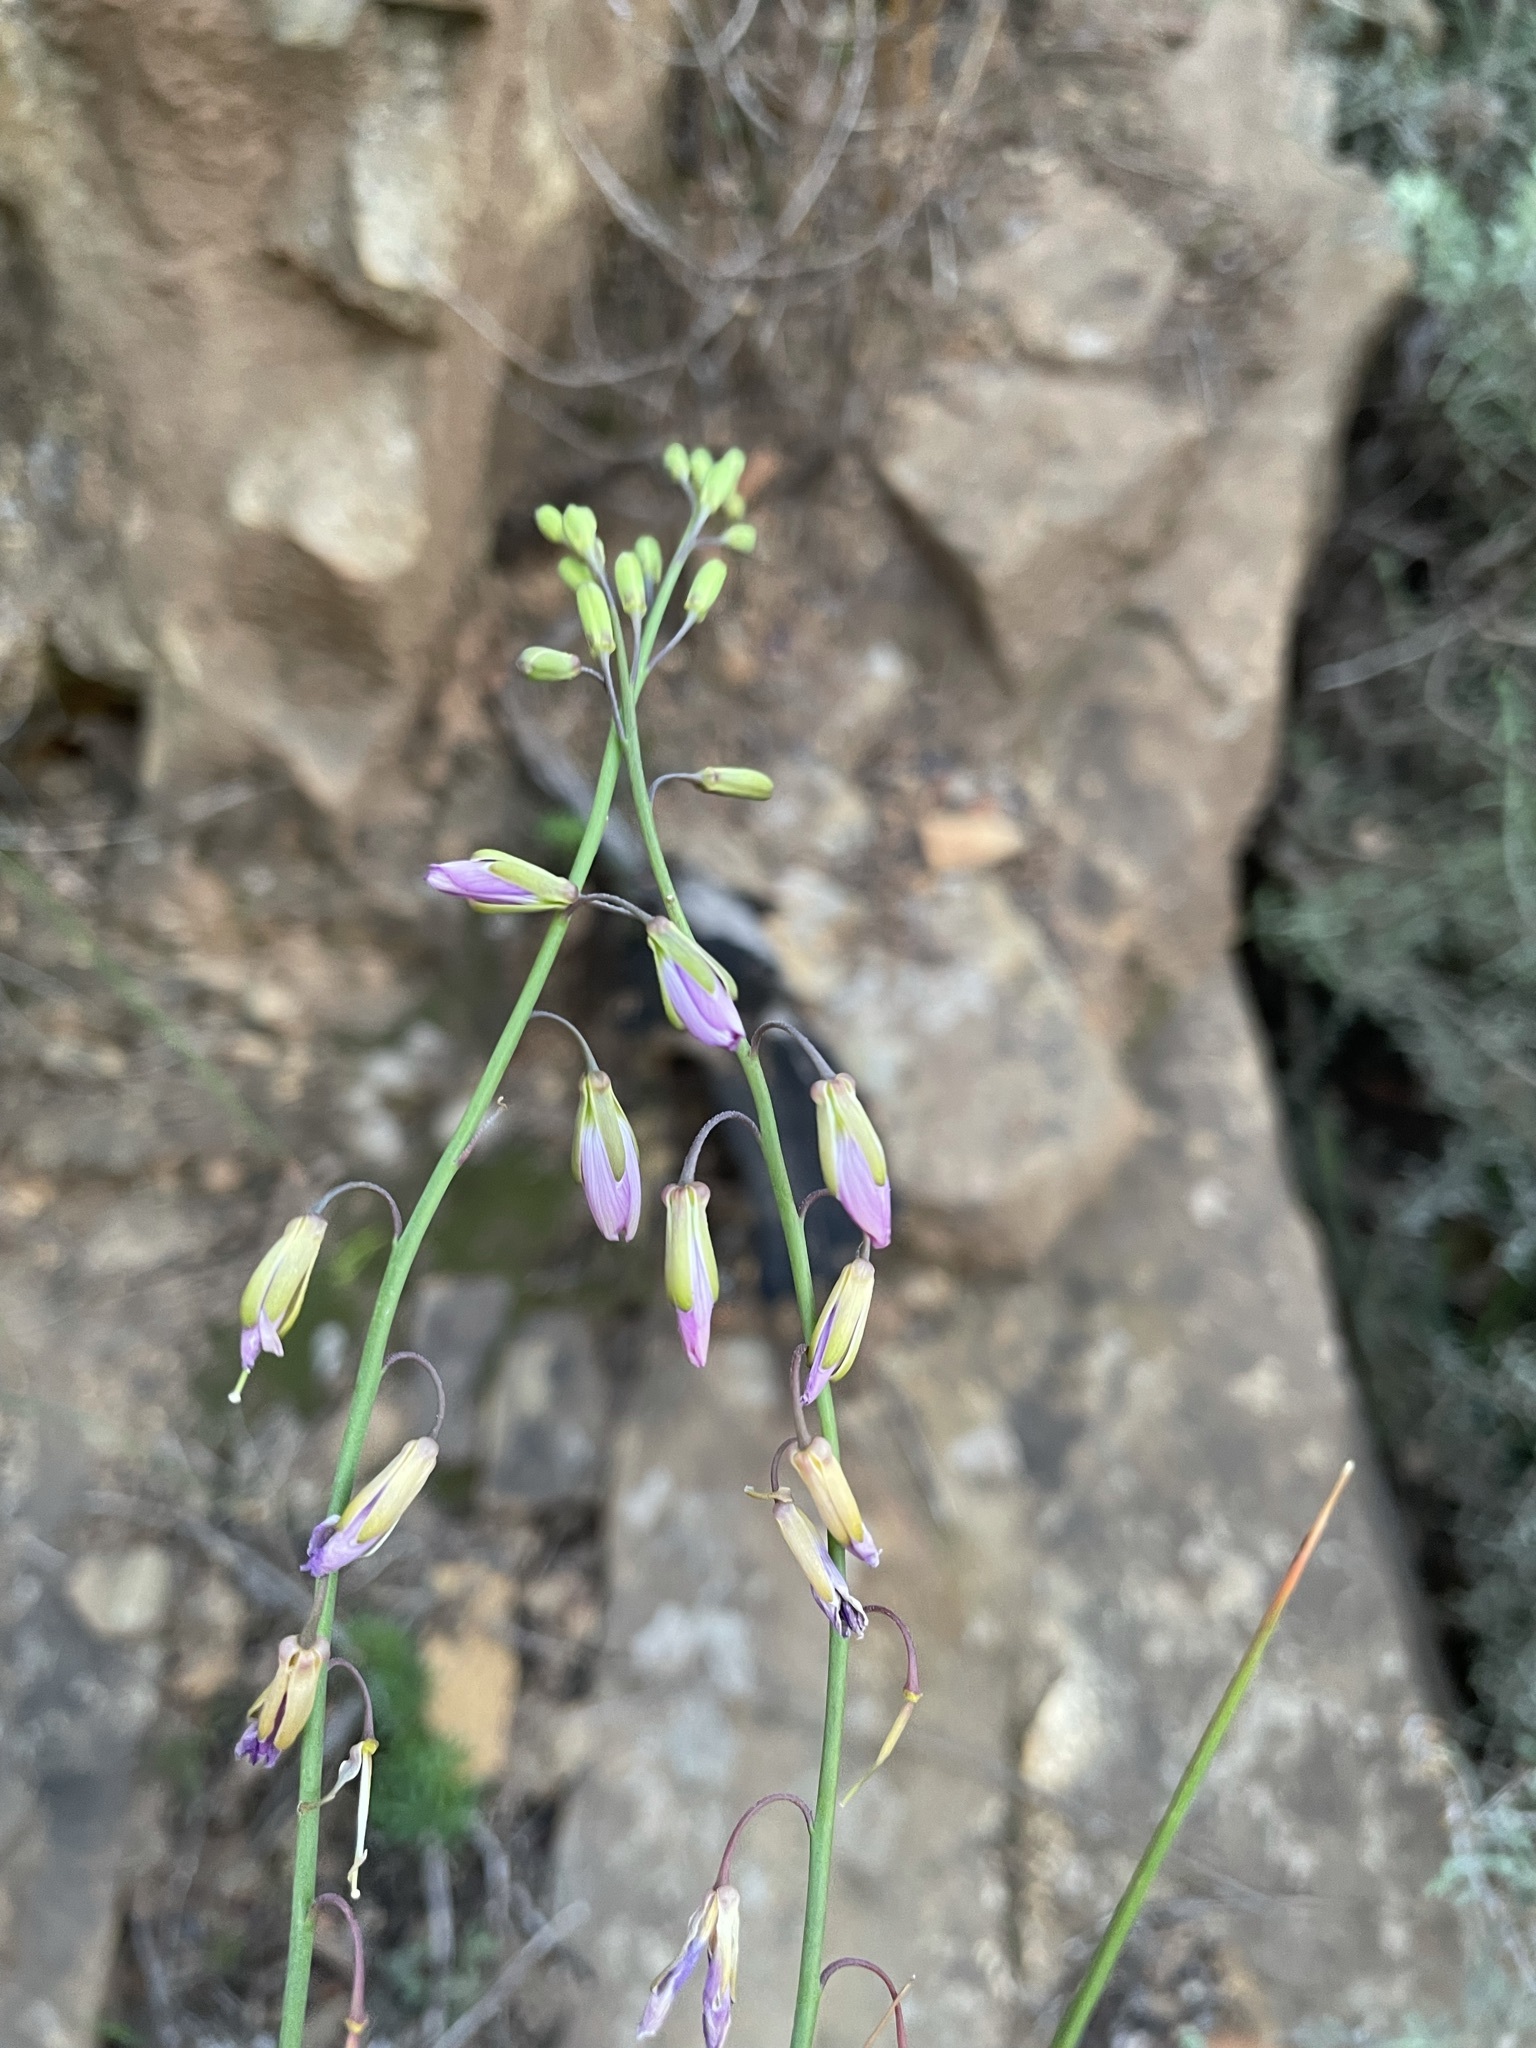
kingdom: Plantae
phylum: Tracheophyta
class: Magnoliopsida
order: Brassicales
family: Brassicaceae
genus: Heliophila
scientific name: Heliophila cornuta
